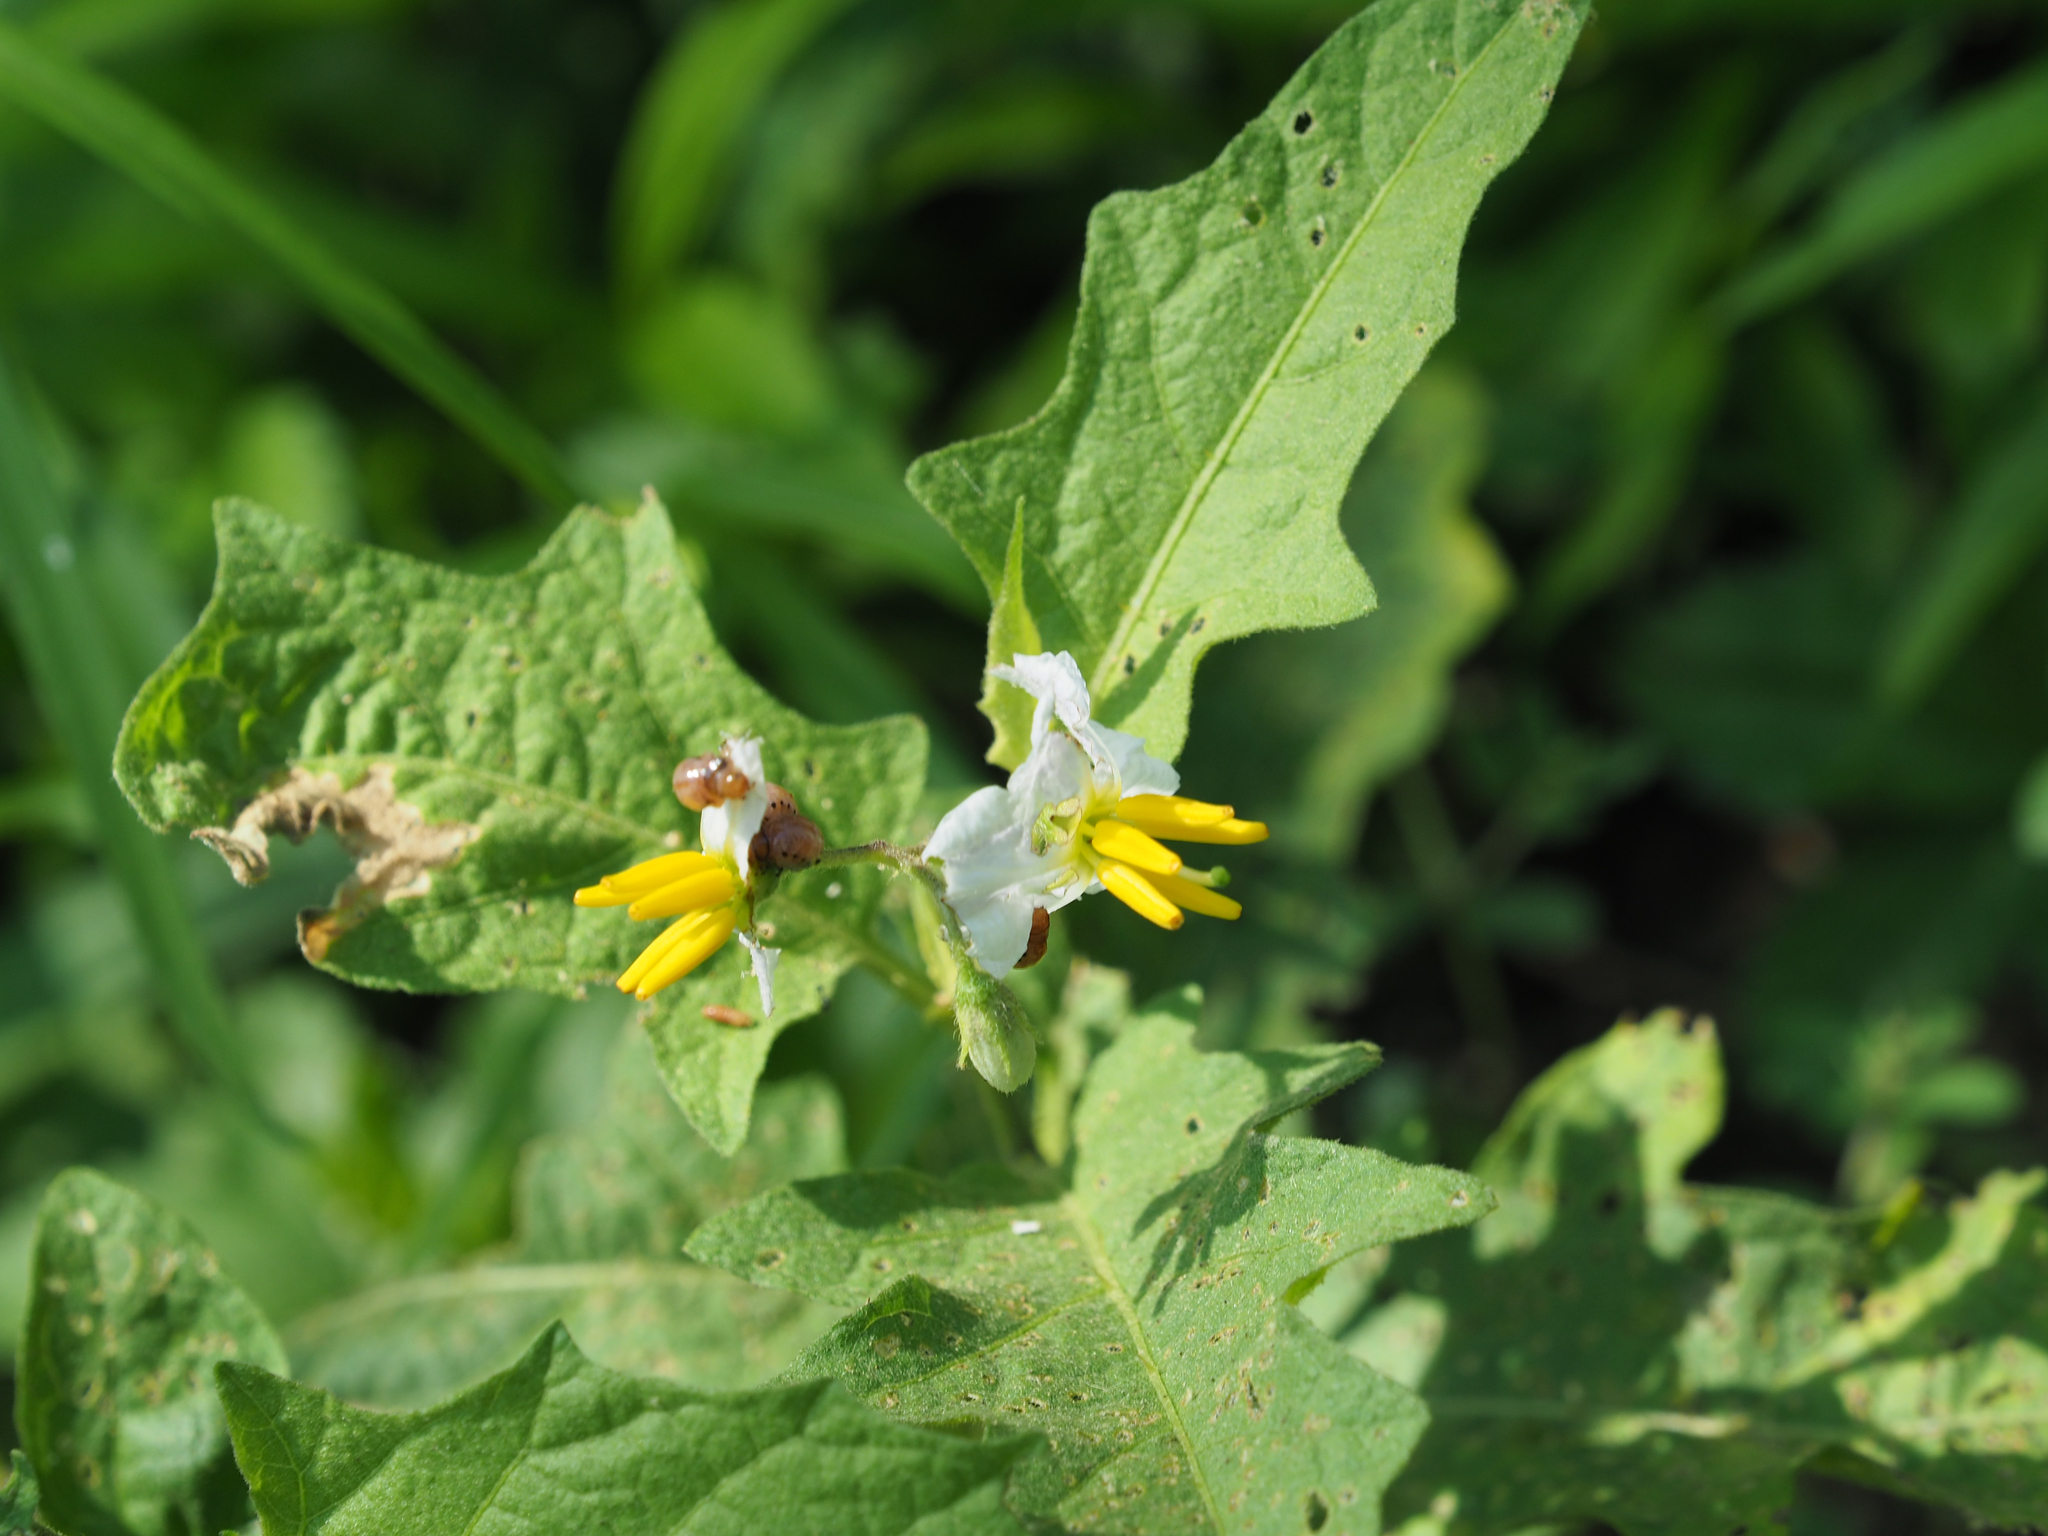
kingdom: Plantae
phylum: Tracheophyta
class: Magnoliopsida
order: Solanales
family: Solanaceae
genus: Solanum
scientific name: Solanum carolinense
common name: Horse-nettle
